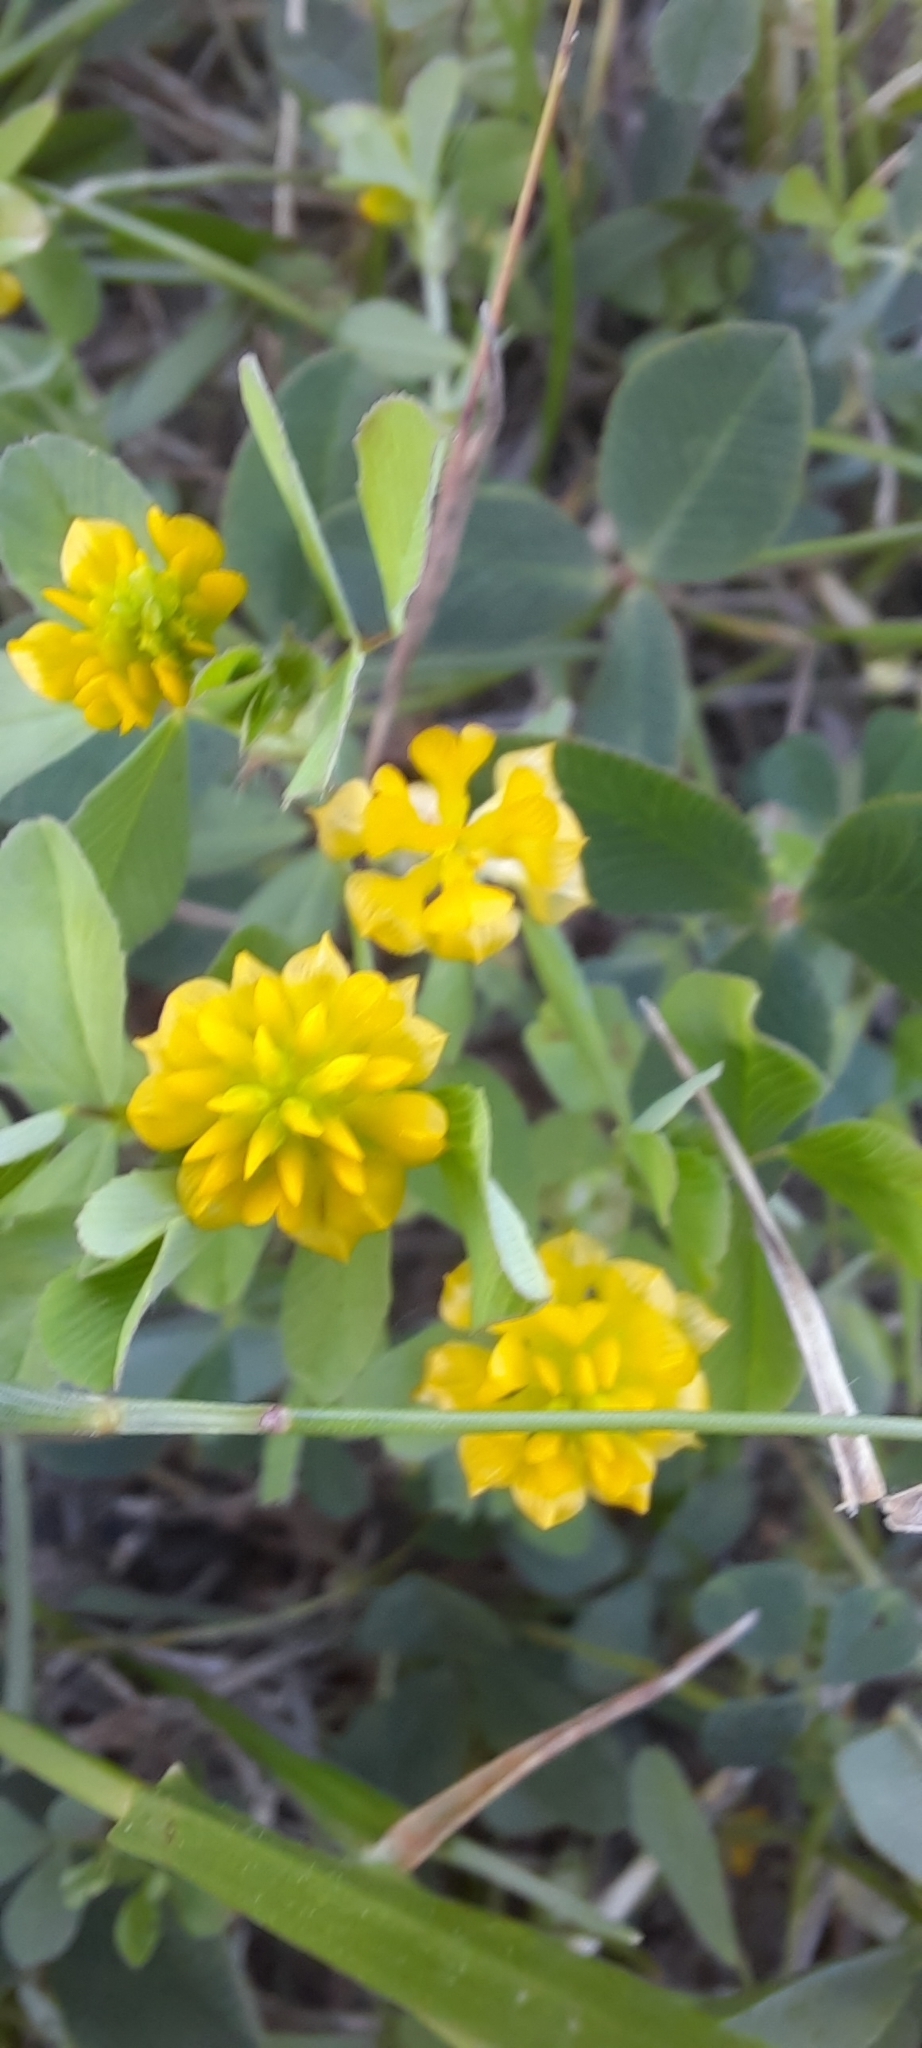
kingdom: Plantae
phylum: Tracheophyta
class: Magnoliopsida
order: Fabales
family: Fabaceae
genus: Trifolium
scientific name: Trifolium campestre
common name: Field clover
